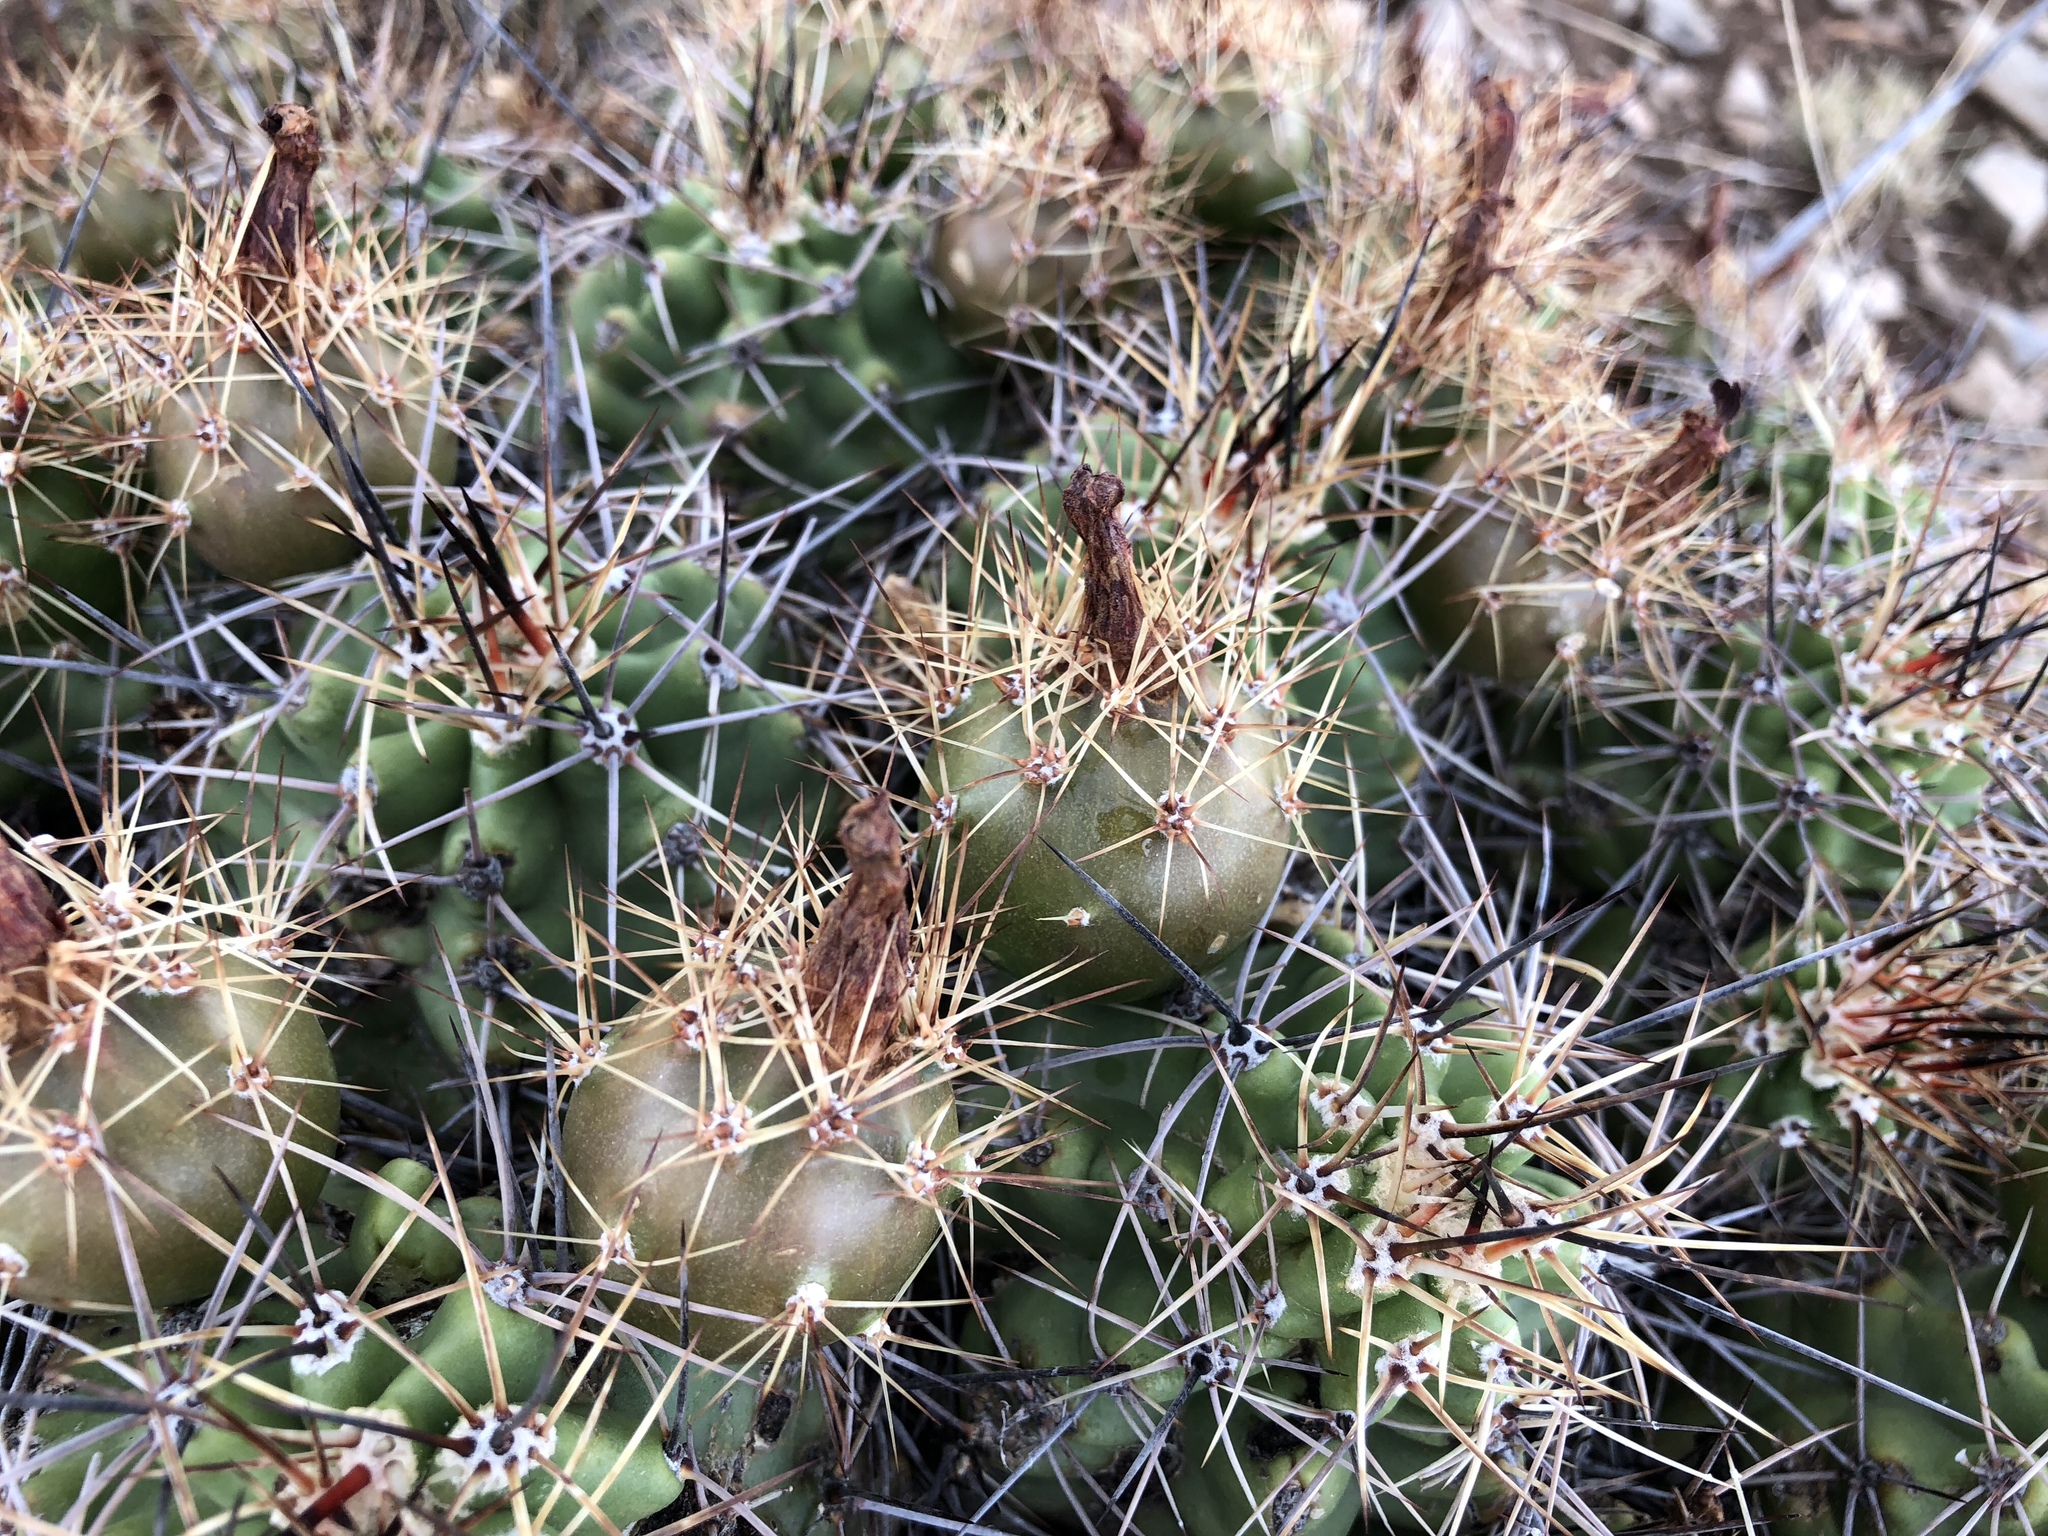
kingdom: Plantae
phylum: Tracheophyta
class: Magnoliopsida
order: Caryophyllales
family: Cactaceae
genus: Echinocereus
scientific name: Echinocereus coccineus
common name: Scarlet hedgehog cactus
